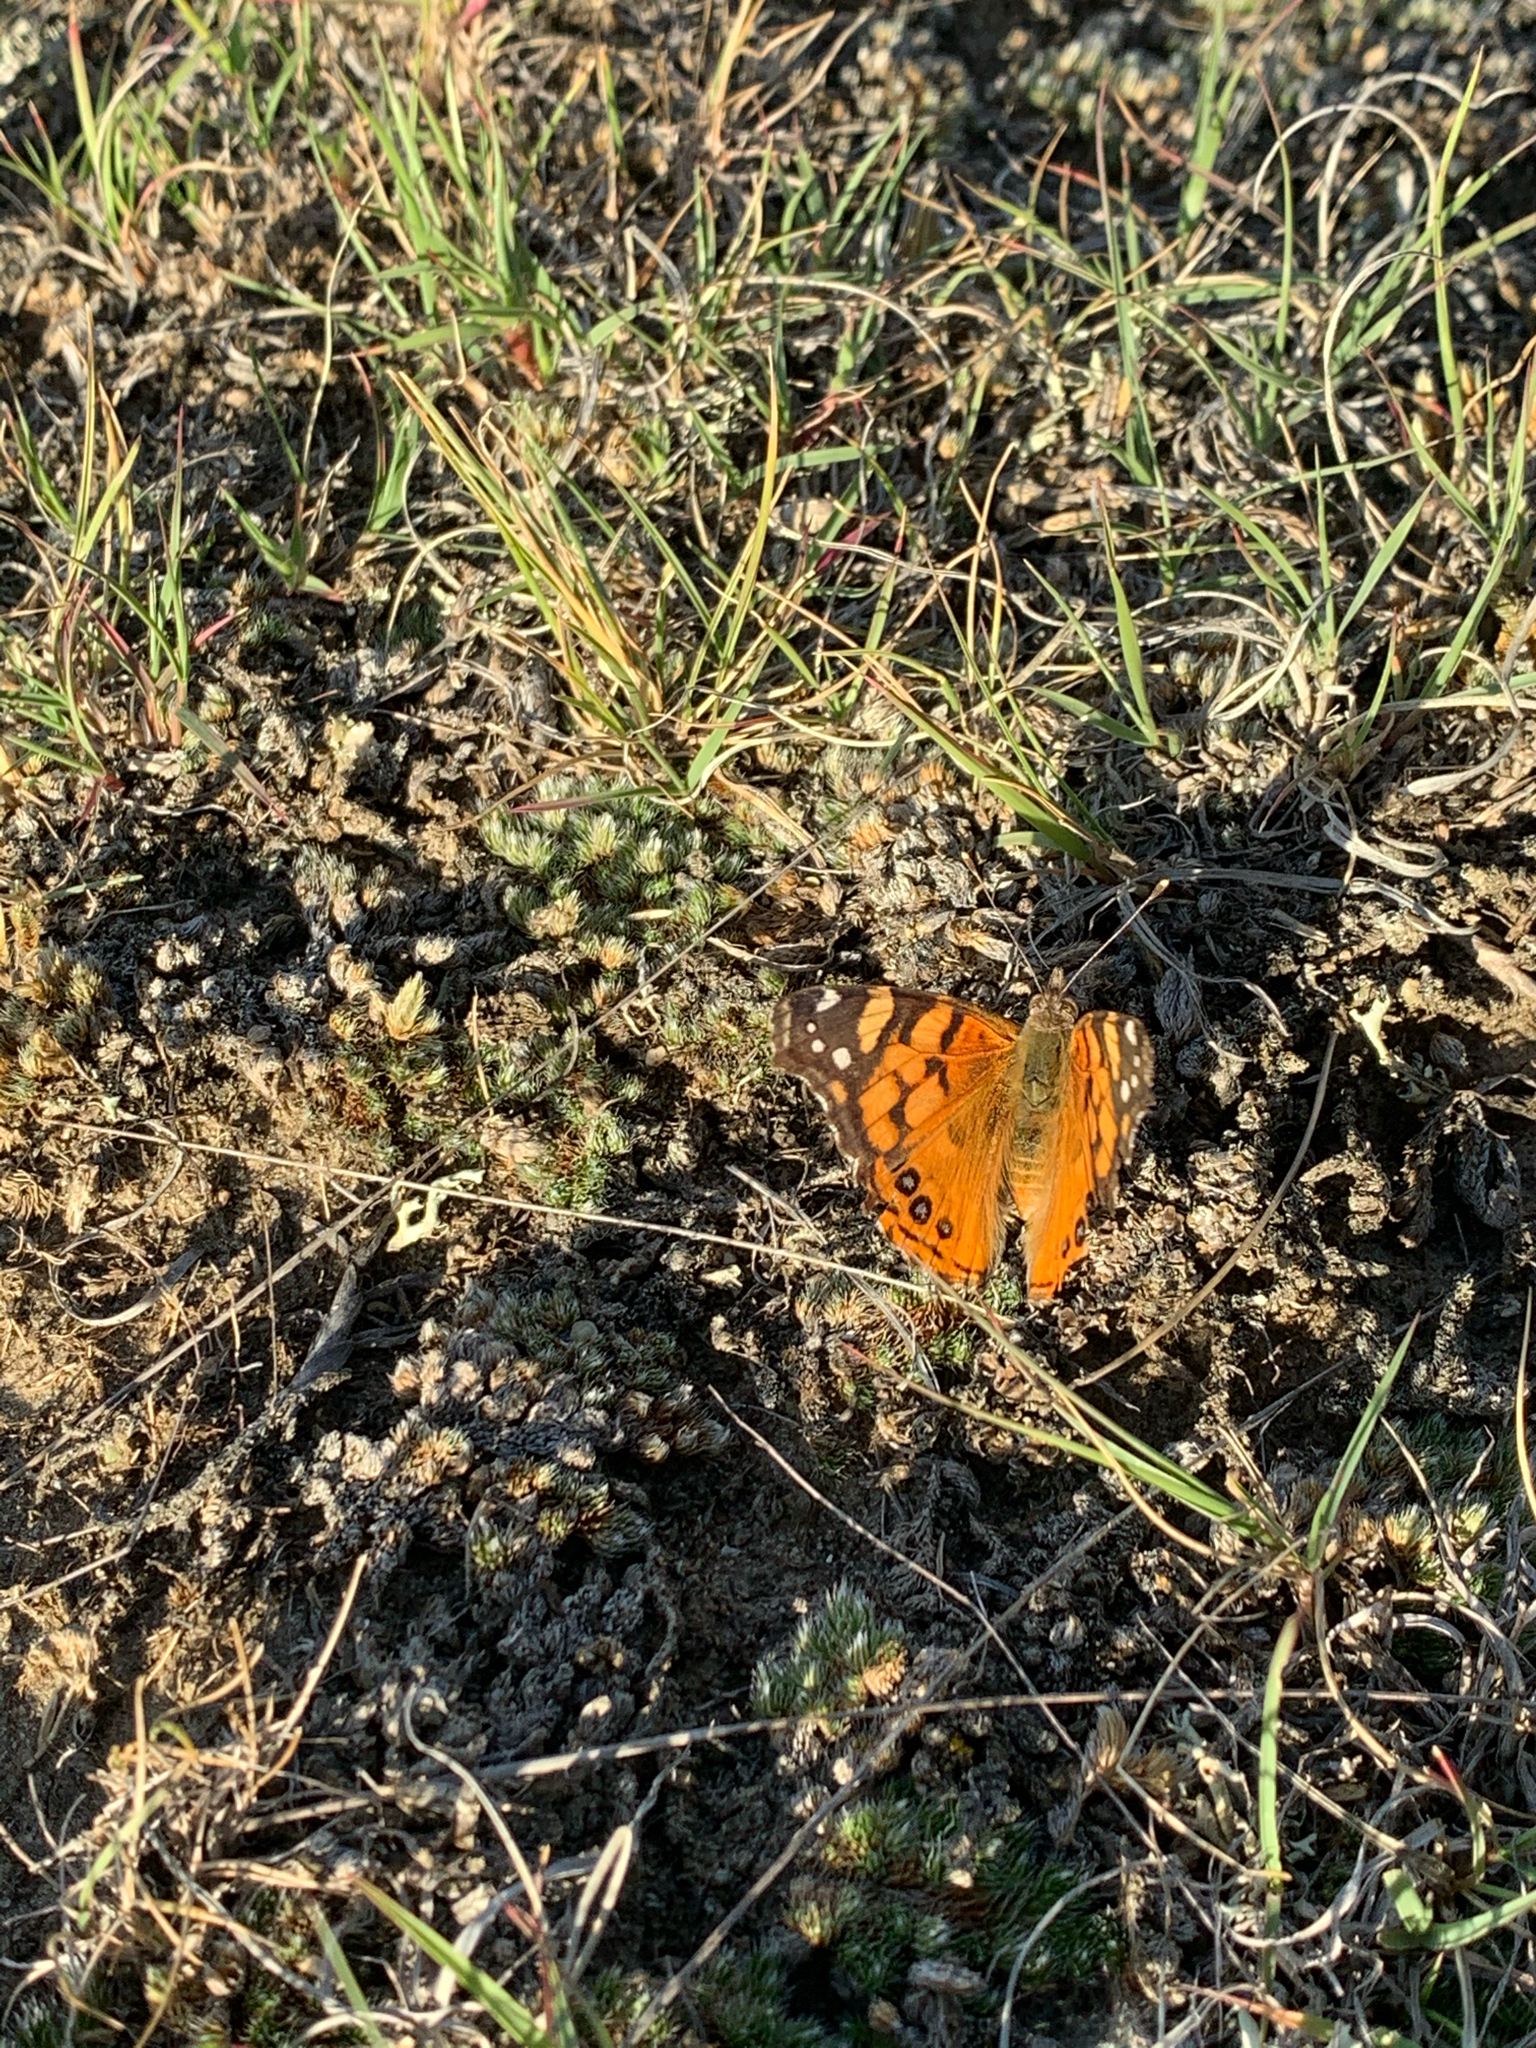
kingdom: Animalia
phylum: Arthropoda
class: Insecta
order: Lepidoptera
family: Nymphalidae
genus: Vanessa
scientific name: Vanessa annabella
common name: West coast lady
